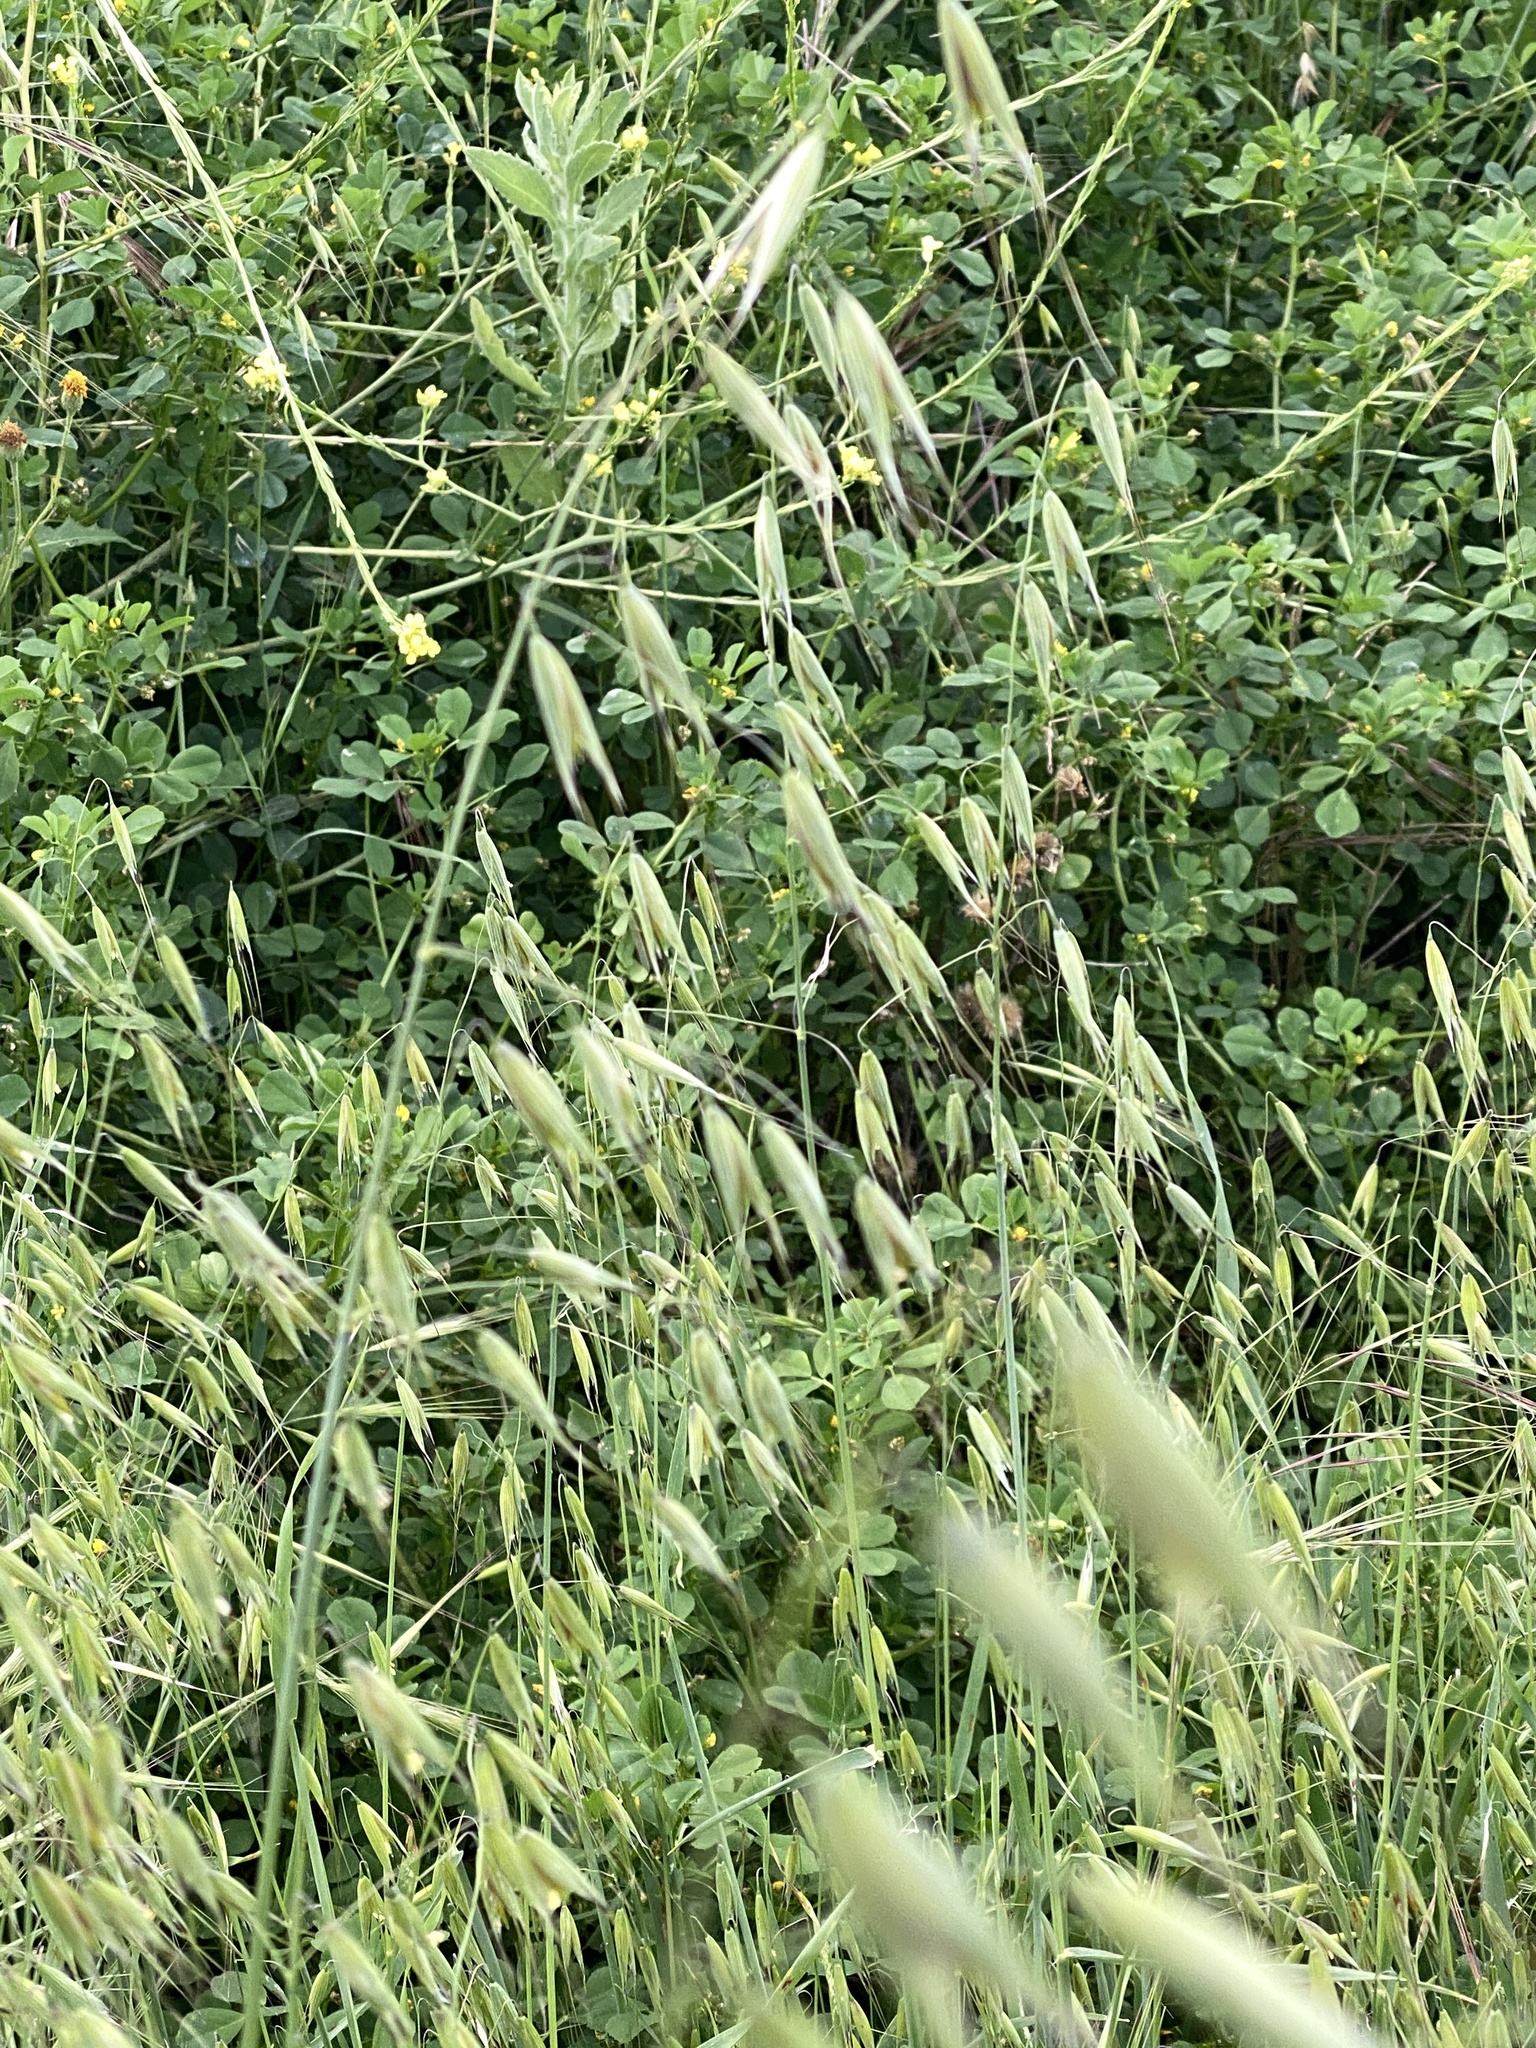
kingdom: Plantae
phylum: Tracheophyta
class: Liliopsida
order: Poales
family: Poaceae
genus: Avena
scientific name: Avena fatua
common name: Wild oat
